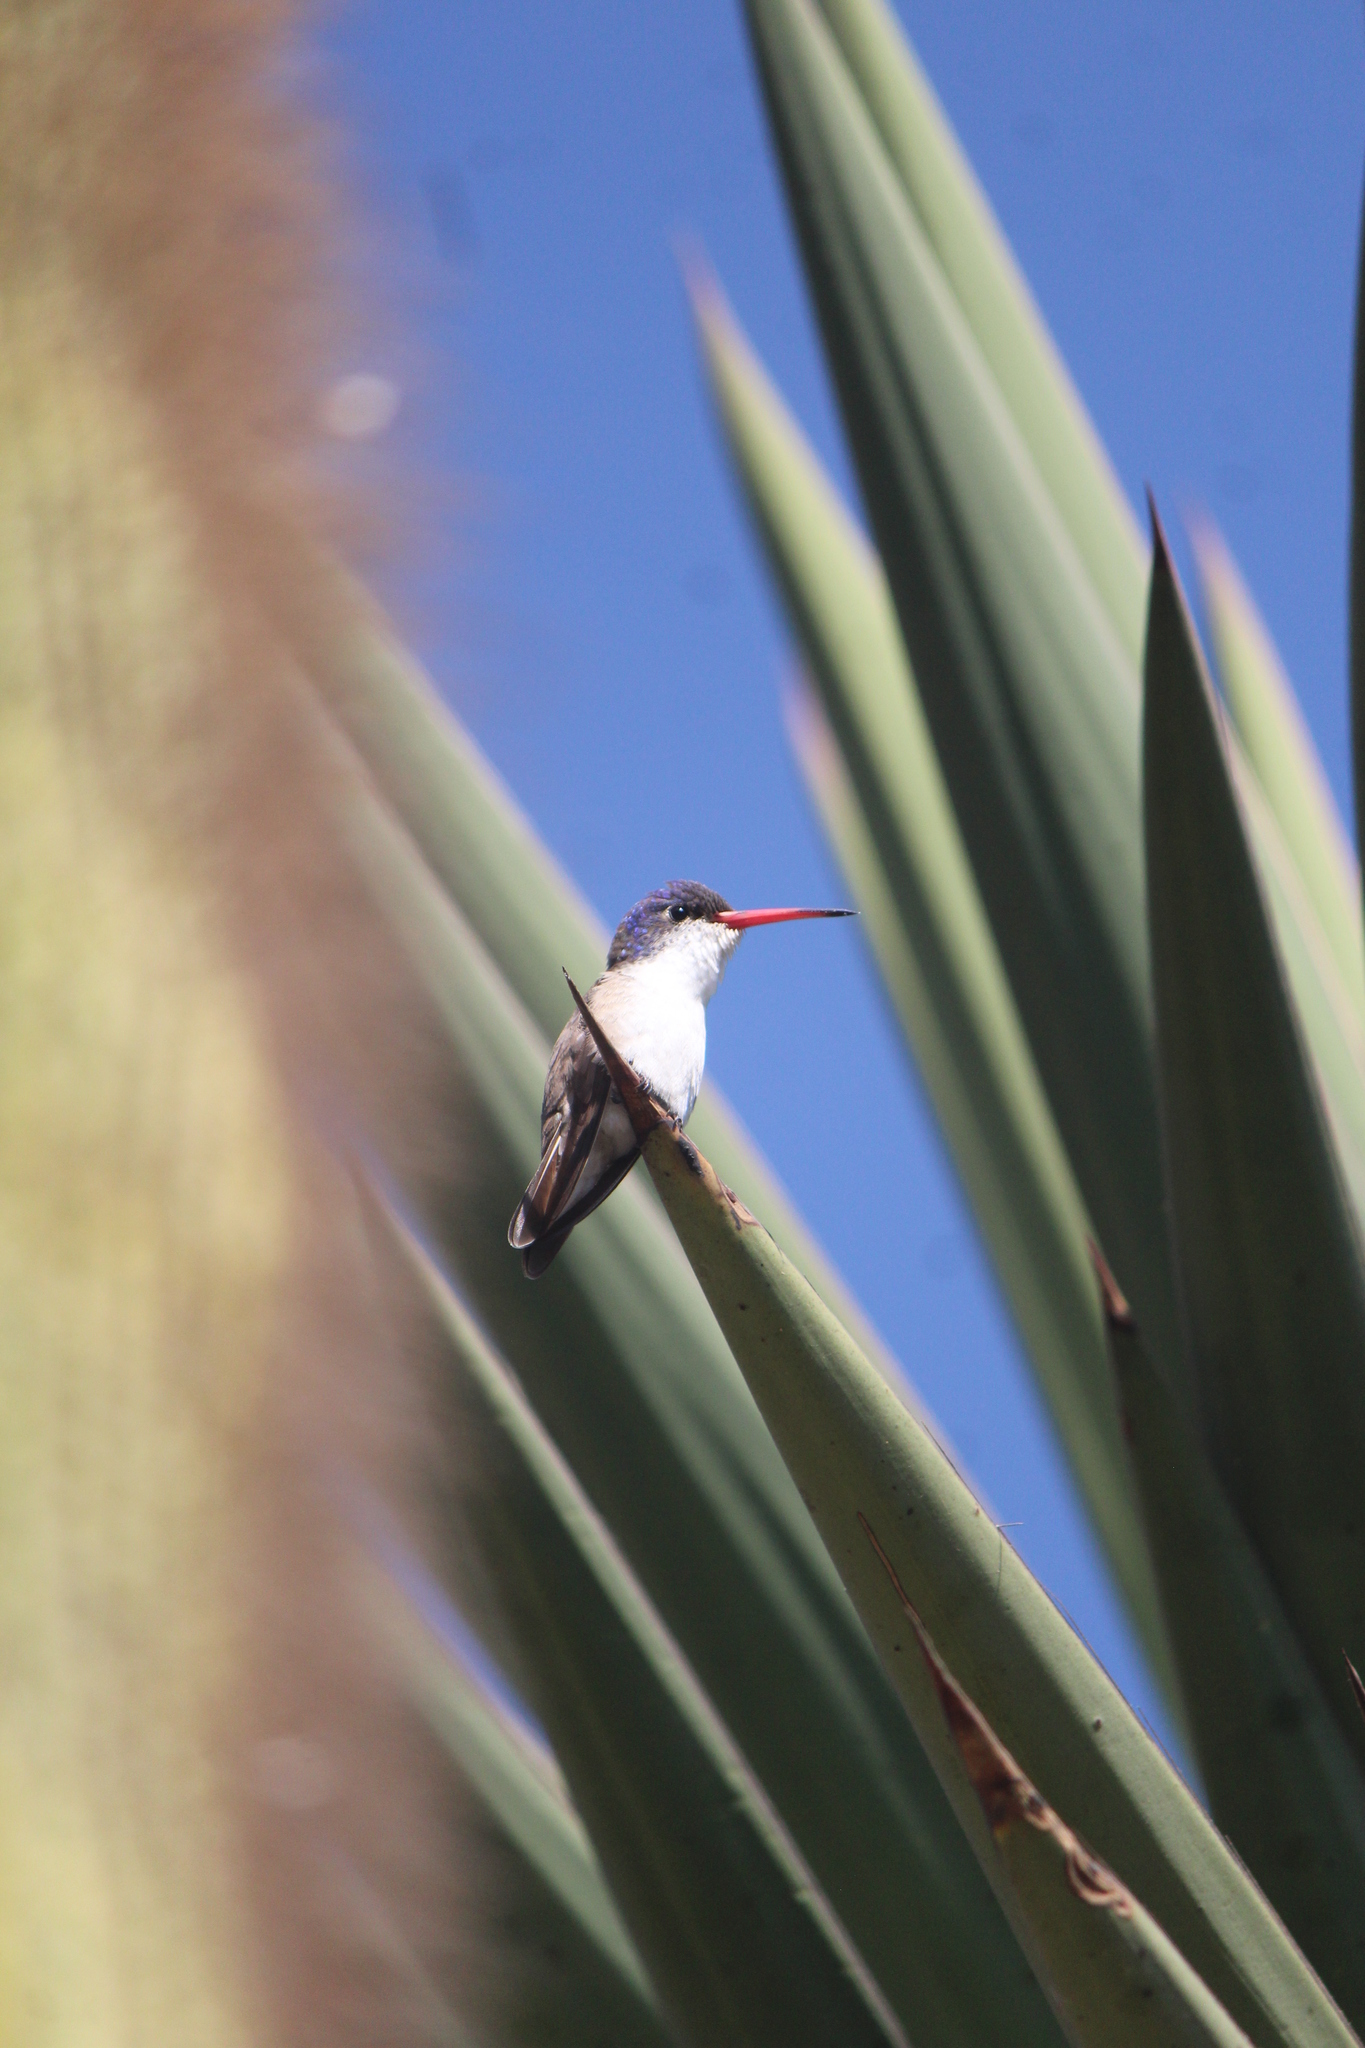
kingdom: Animalia
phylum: Chordata
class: Aves
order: Apodiformes
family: Trochilidae
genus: Leucolia
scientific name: Leucolia violiceps
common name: Violet-crowned hummingbird
